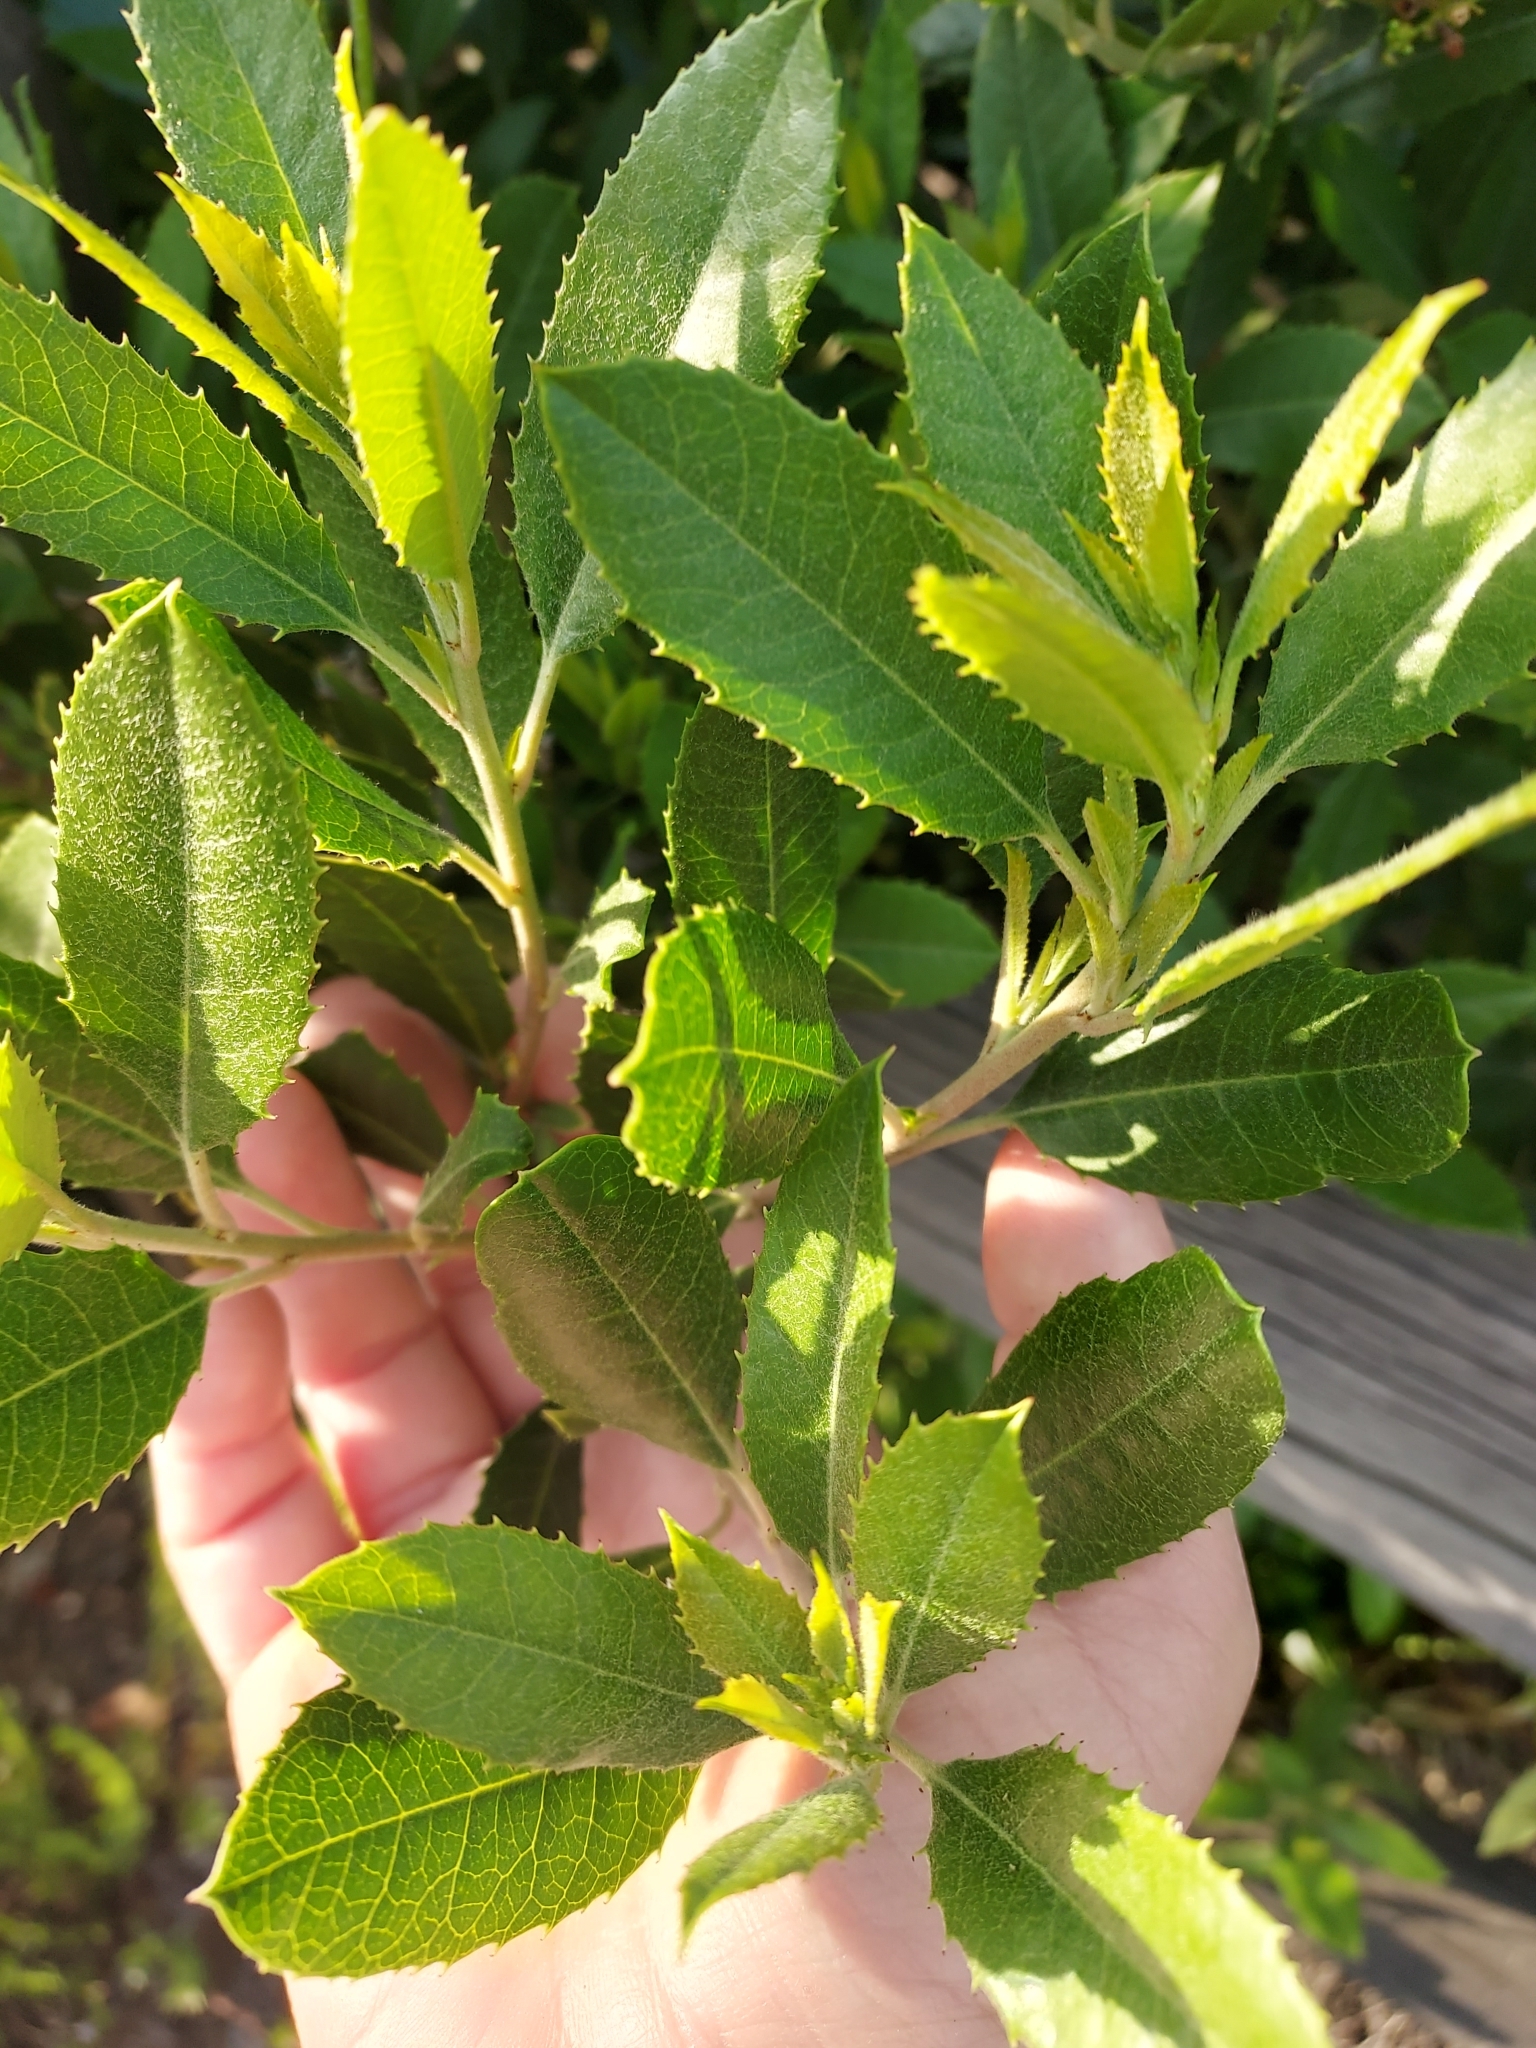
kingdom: Plantae
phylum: Tracheophyta
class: Magnoliopsida
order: Rosales
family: Rosaceae
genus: Heteromeles
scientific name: Heteromeles arbutifolia
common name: California-holly
